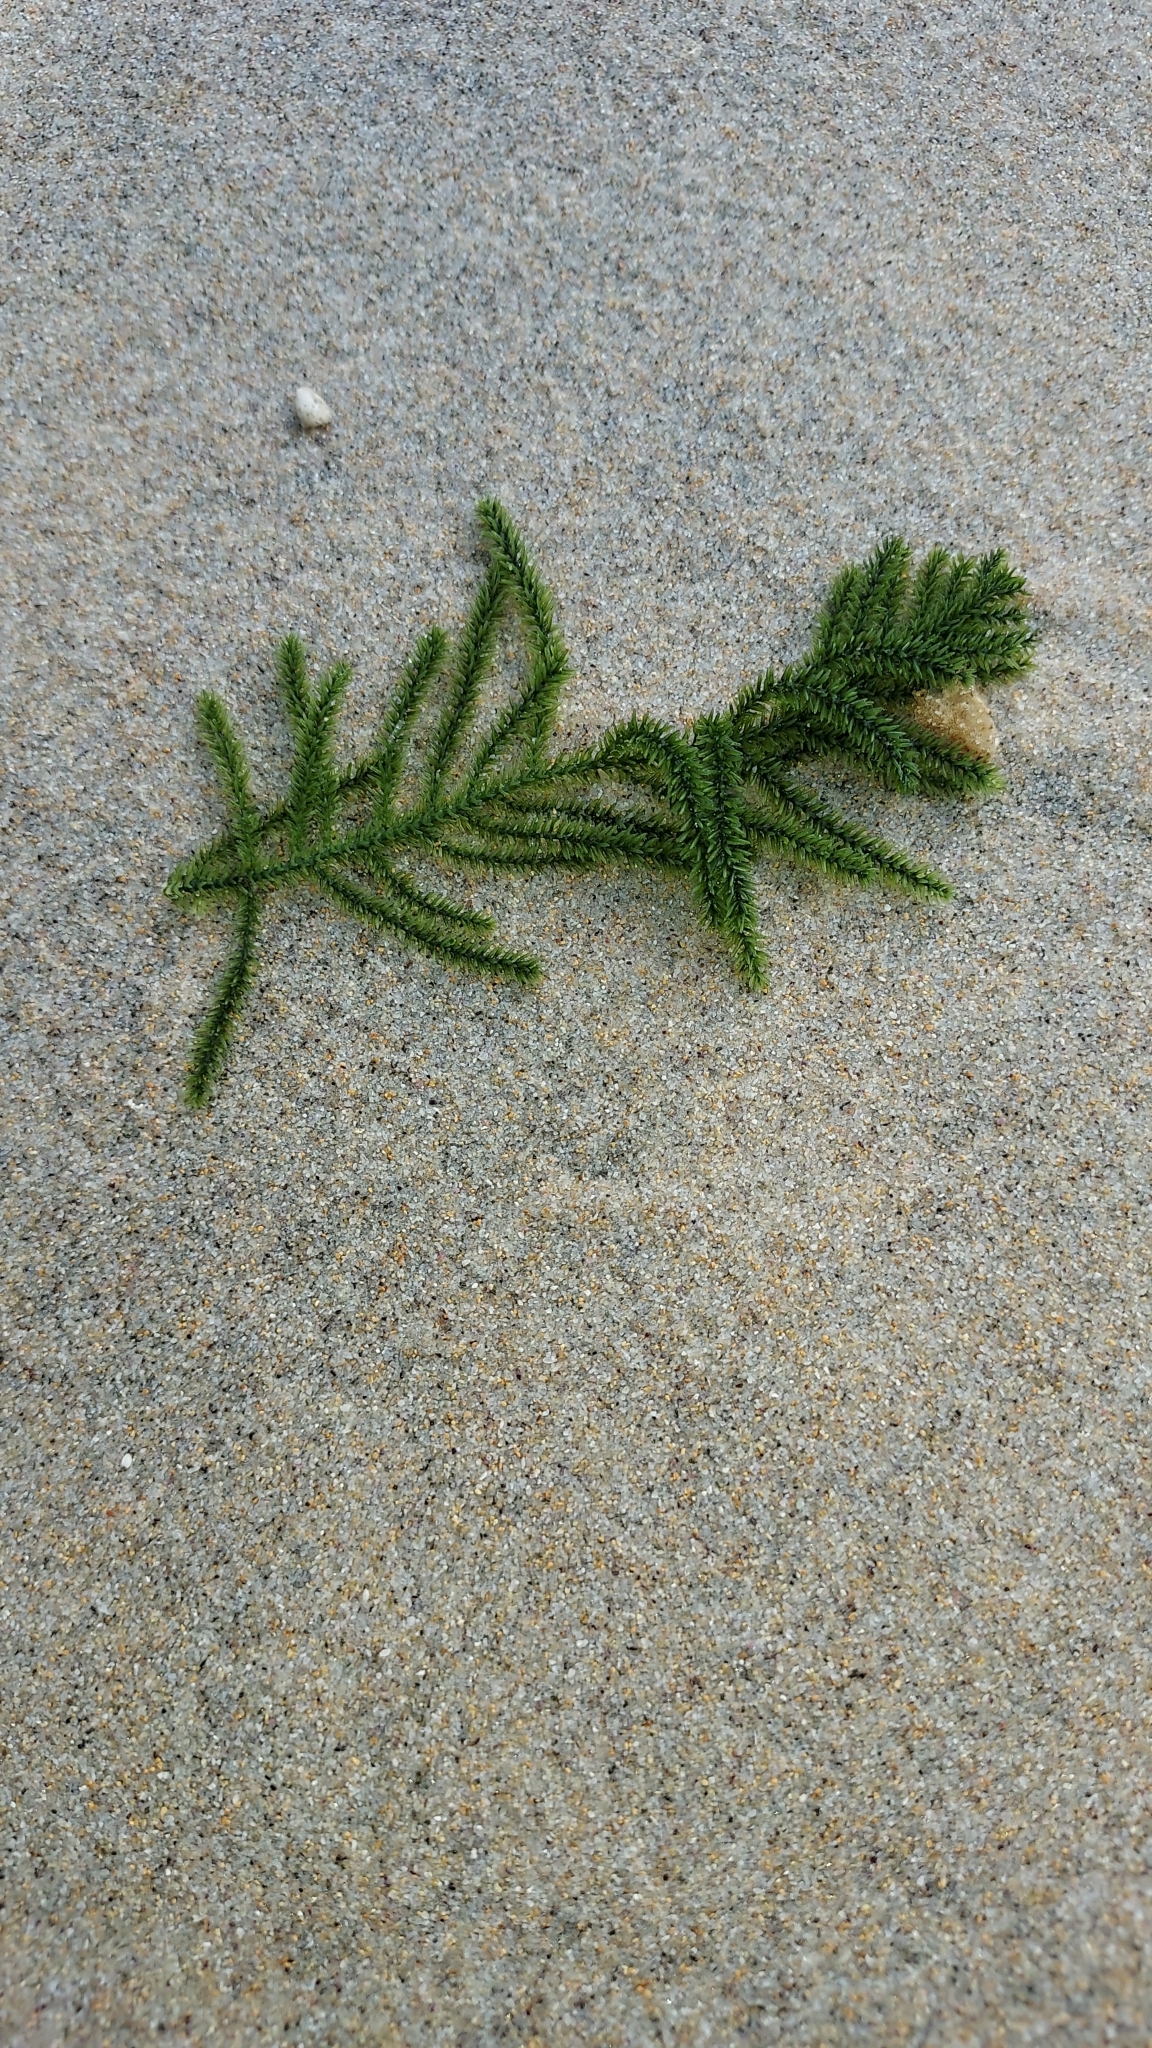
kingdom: Plantae
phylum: Chlorophyta
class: Ulvophyceae
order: Bryopsidales
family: Caulerpaceae
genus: Caulerpa
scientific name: Caulerpa flexilis
